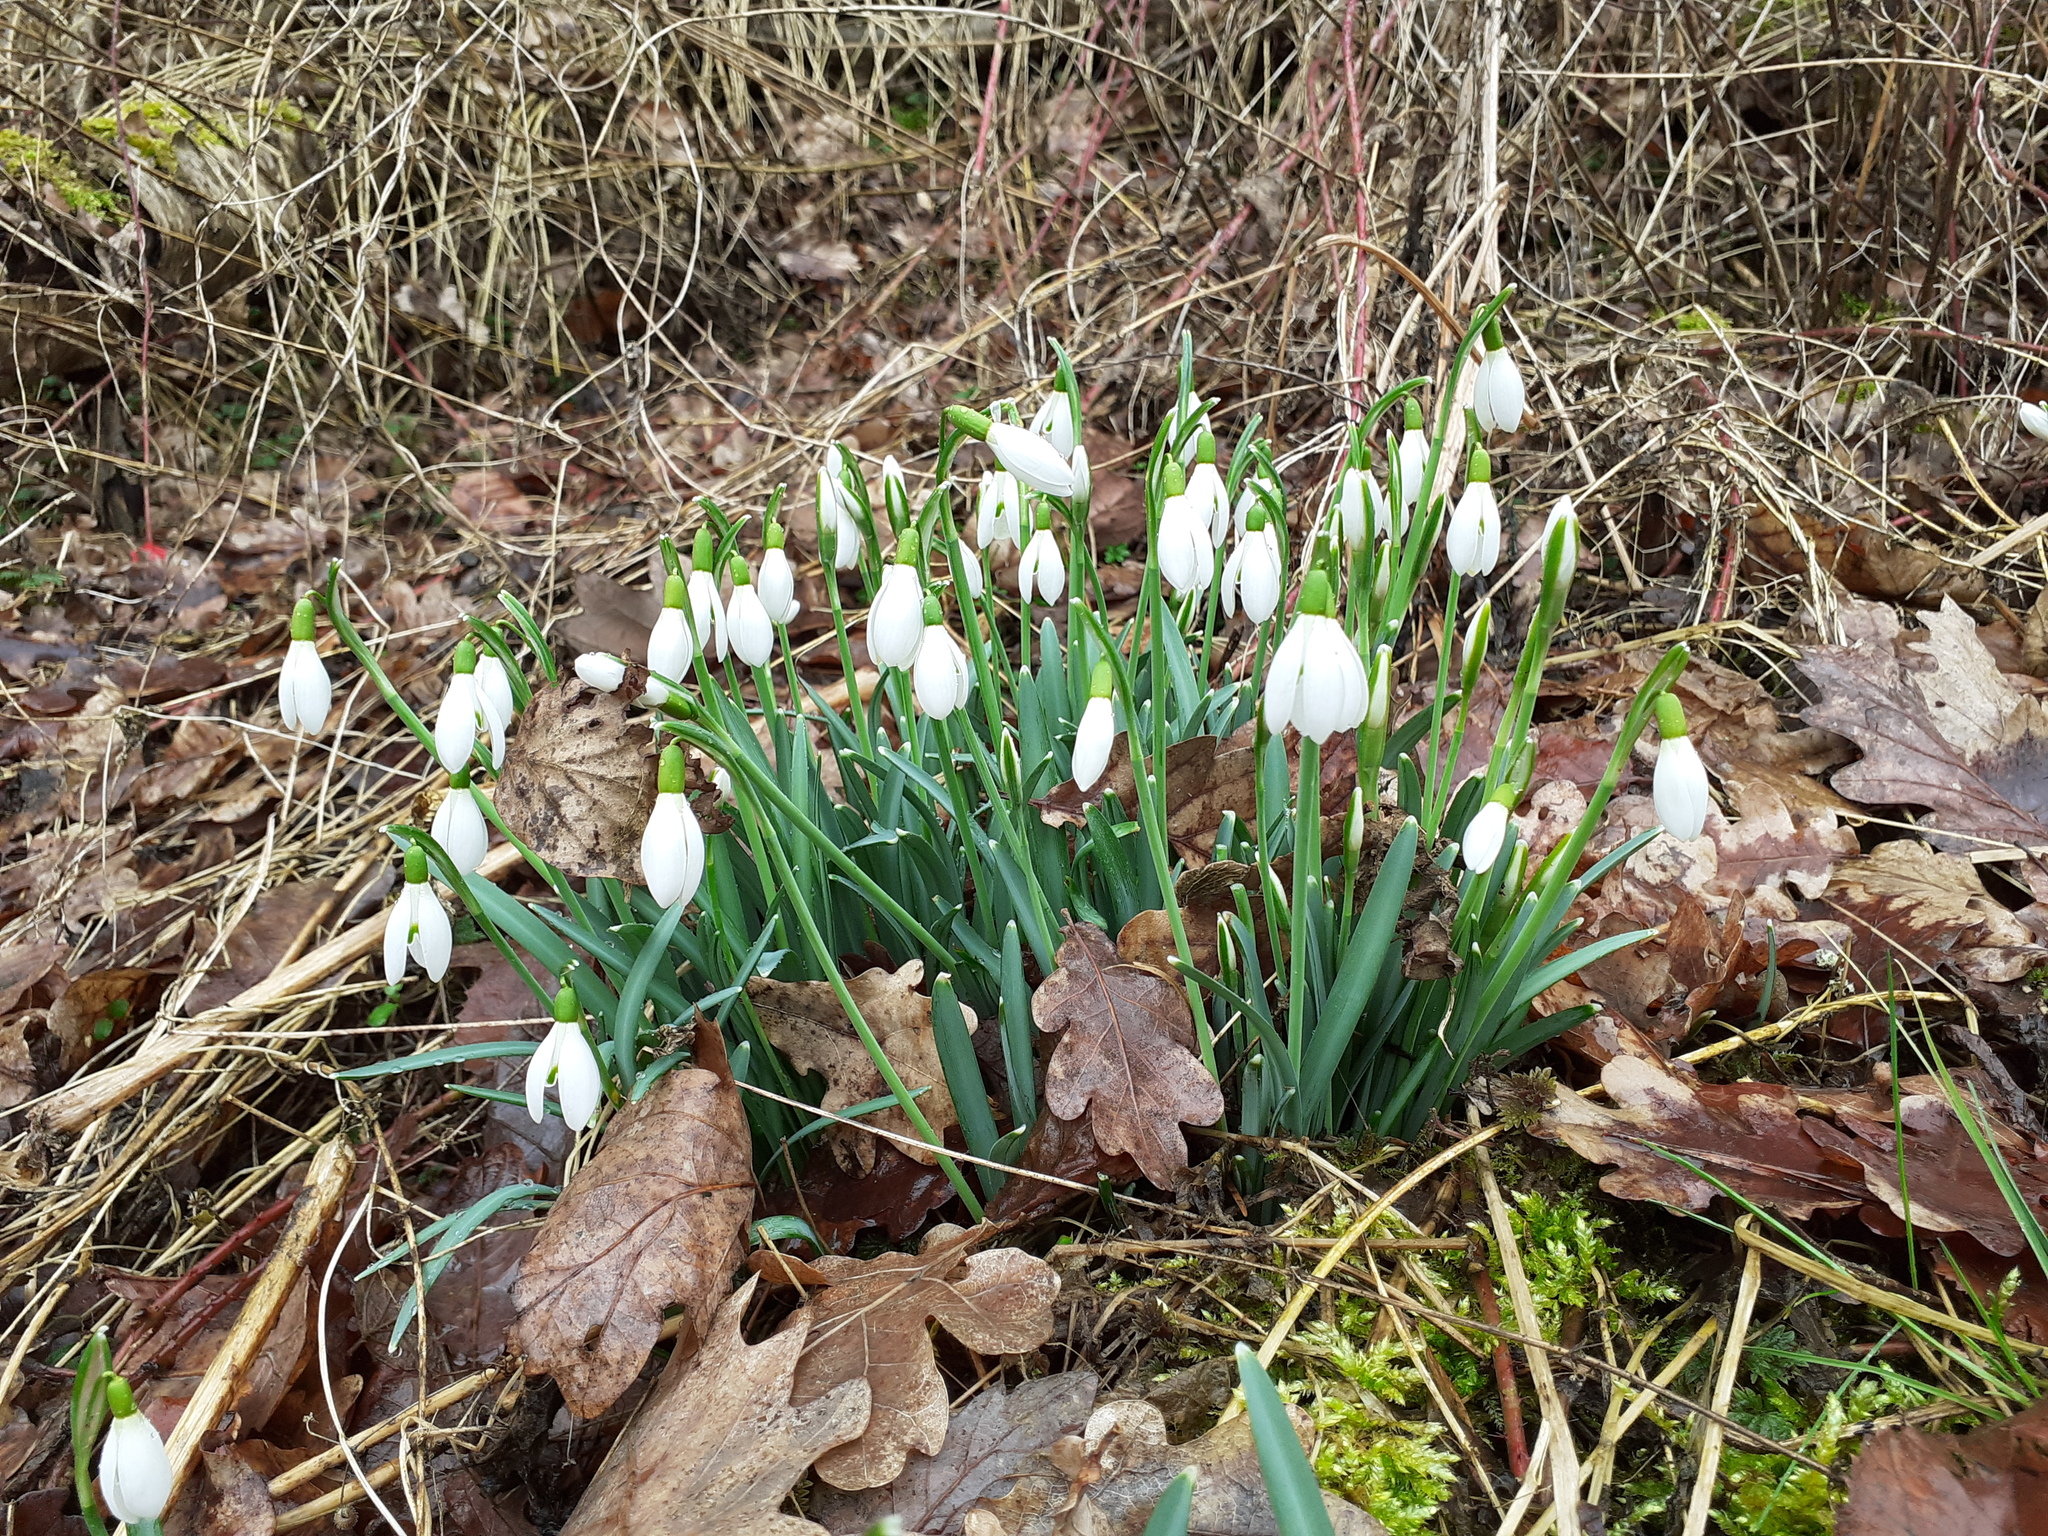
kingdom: Plantae
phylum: Tracheophyta
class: Liliopsida
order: Asparagales
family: Amaryllidaceae
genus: Galanthus
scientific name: Galanthus nivalis
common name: Snowdrop
